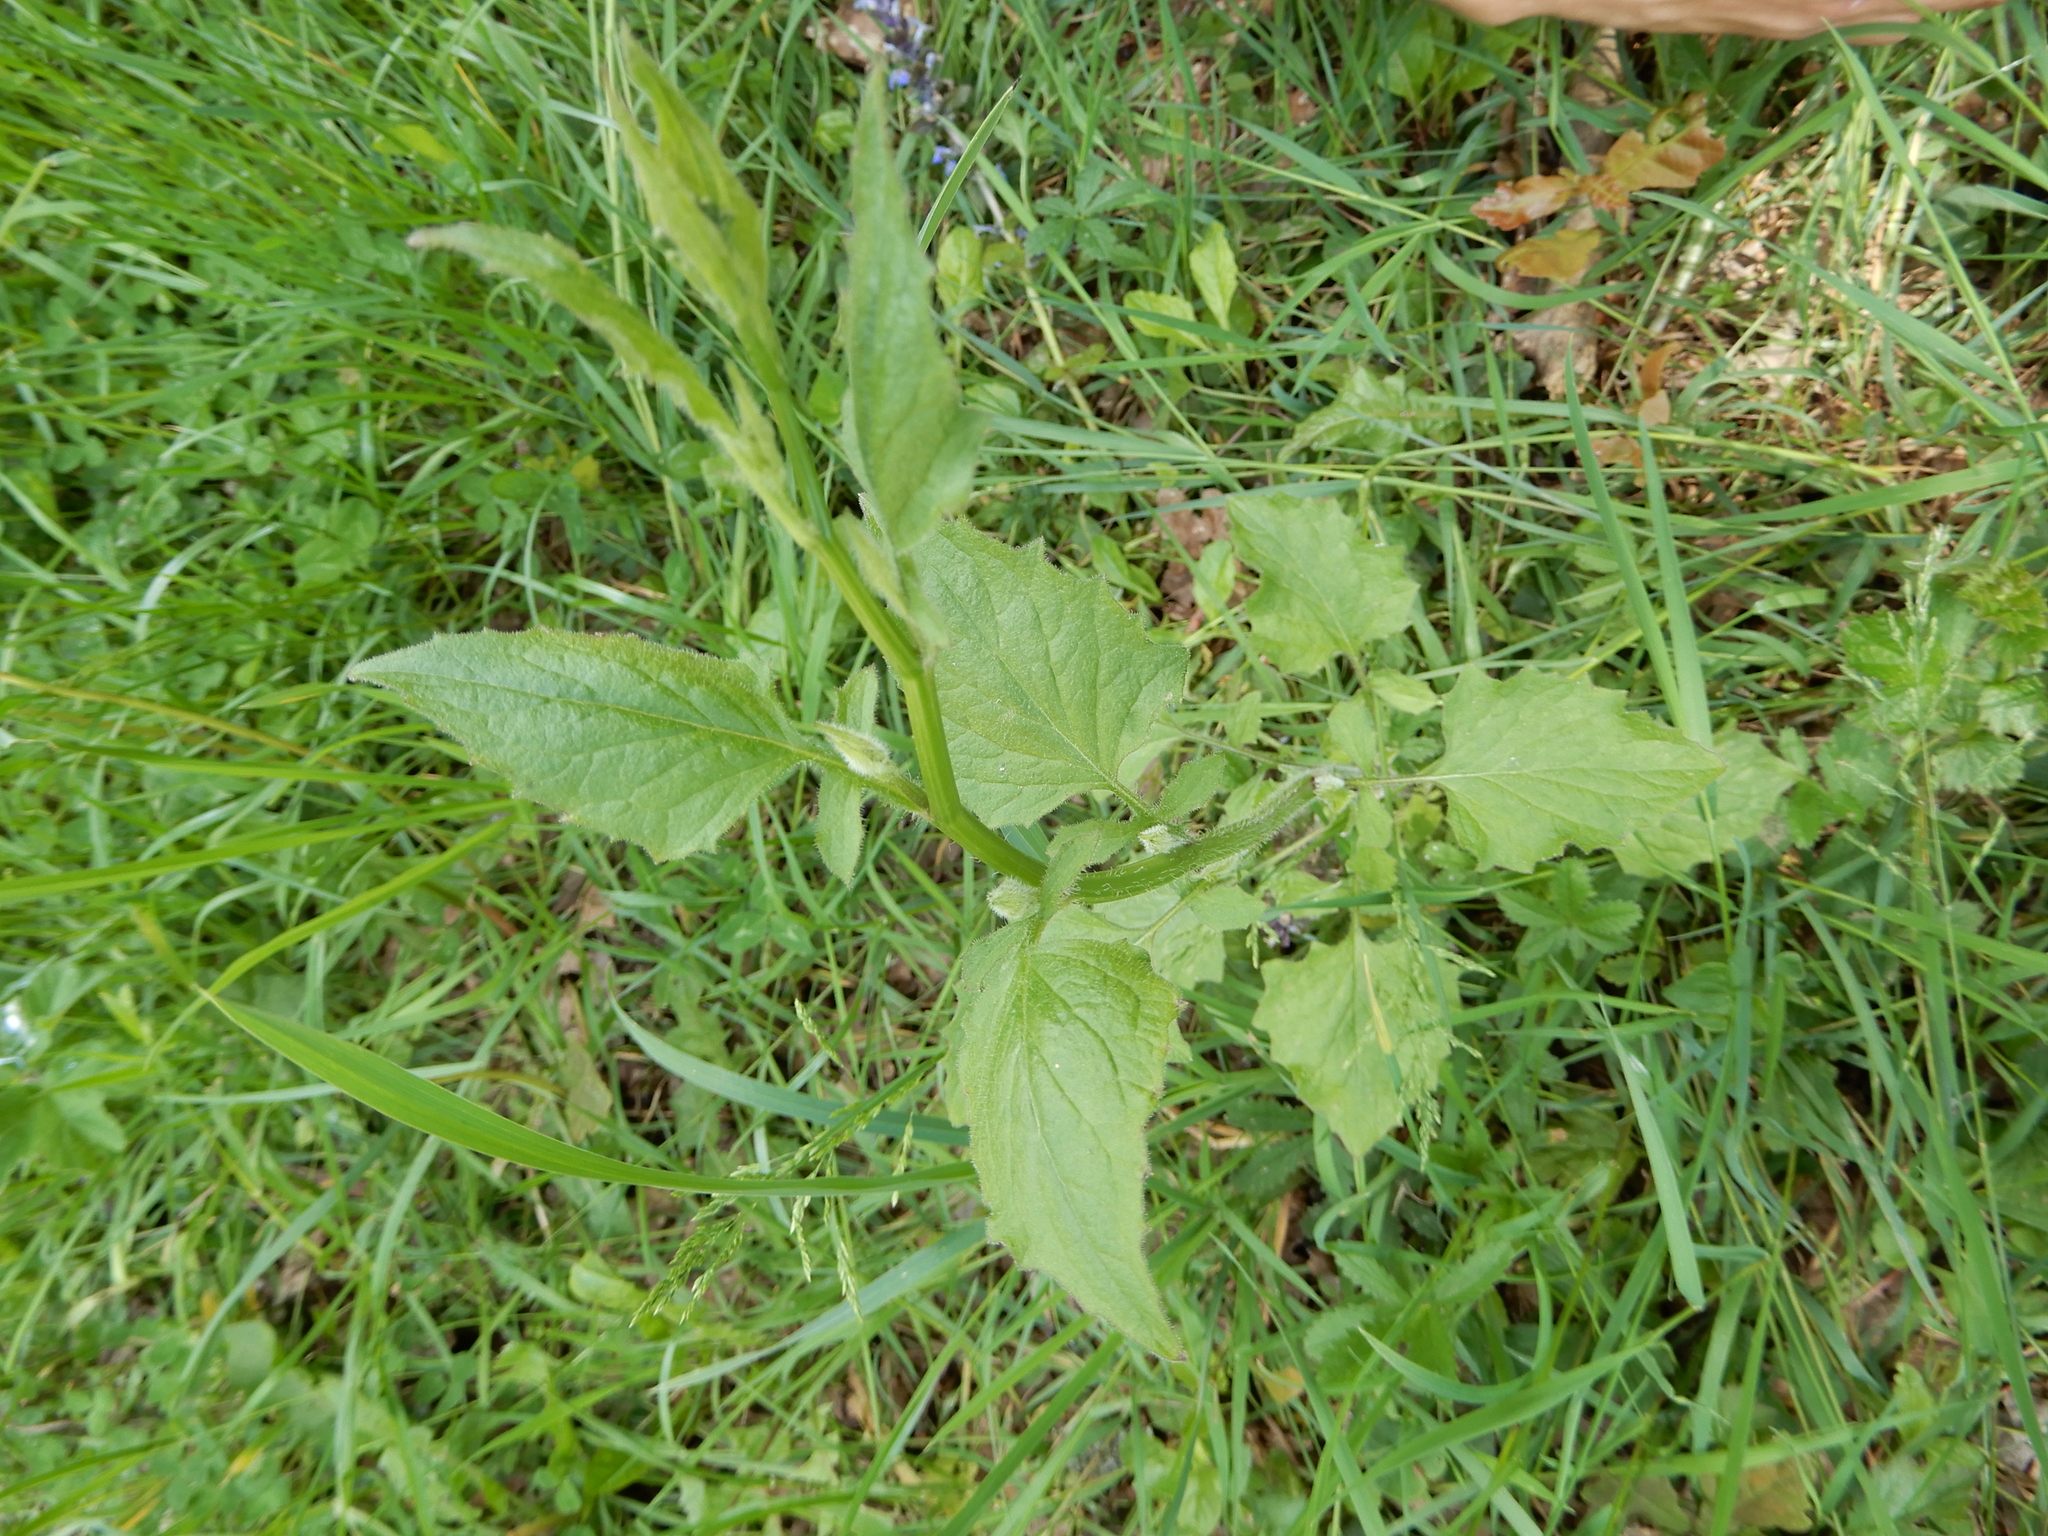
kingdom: Plantae
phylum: Tracheophyta
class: Magnoliopsida
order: Asterales
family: Asteraceae
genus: Lapsana
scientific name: Lapsana communis
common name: Nipplewort
